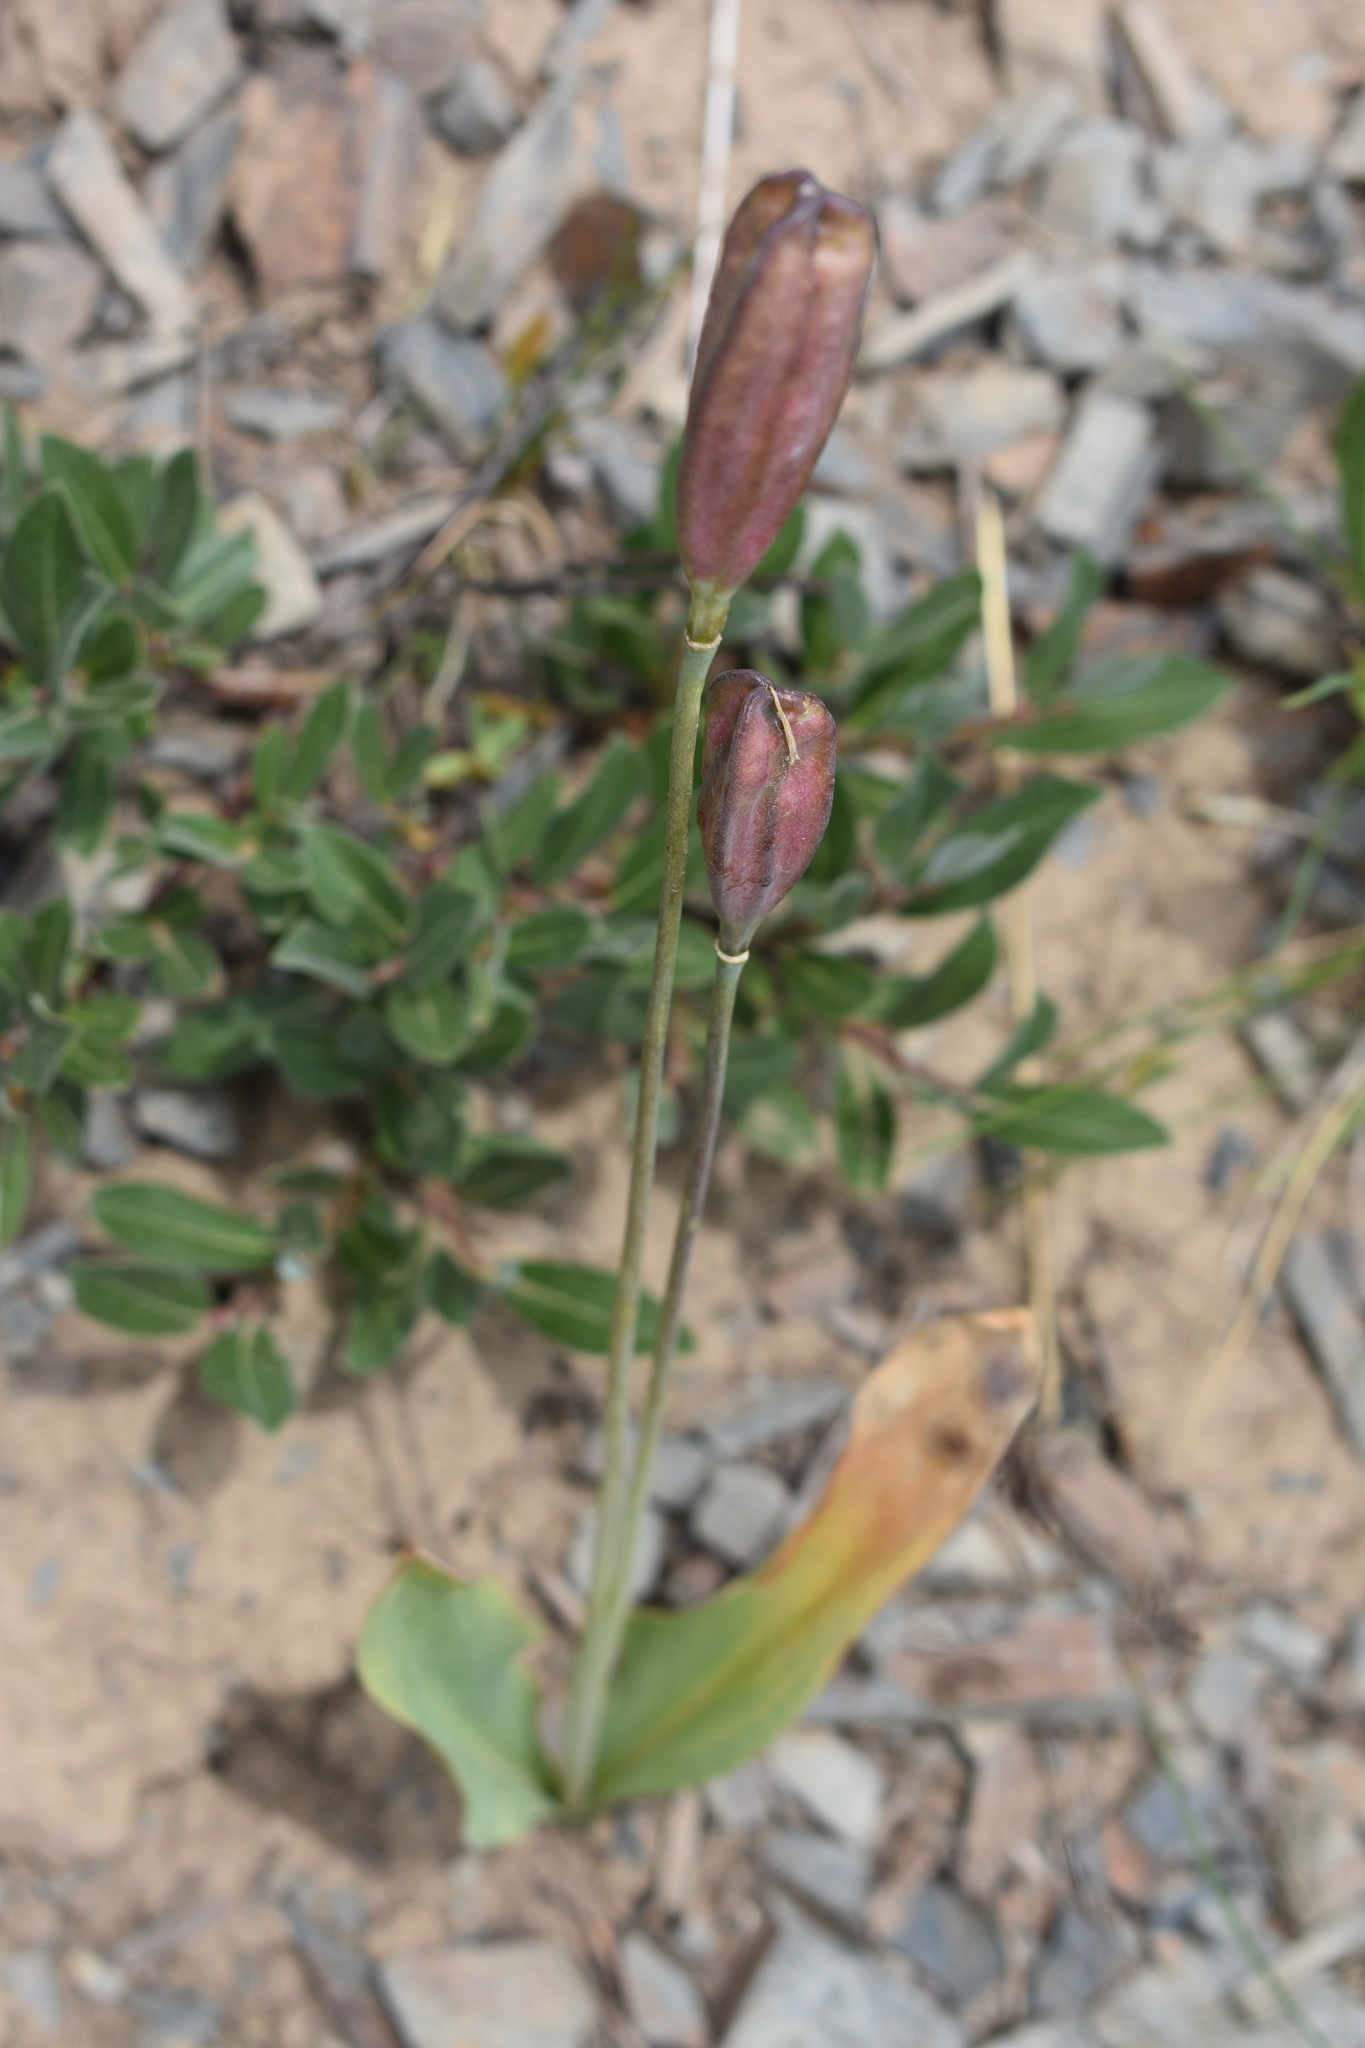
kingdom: Plantae
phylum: Tracheophyta
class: Liliopsida
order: Liliales
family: Liliaceae
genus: Erythronium
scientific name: Erythronium grandiflorum
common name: Avalanche-lily
